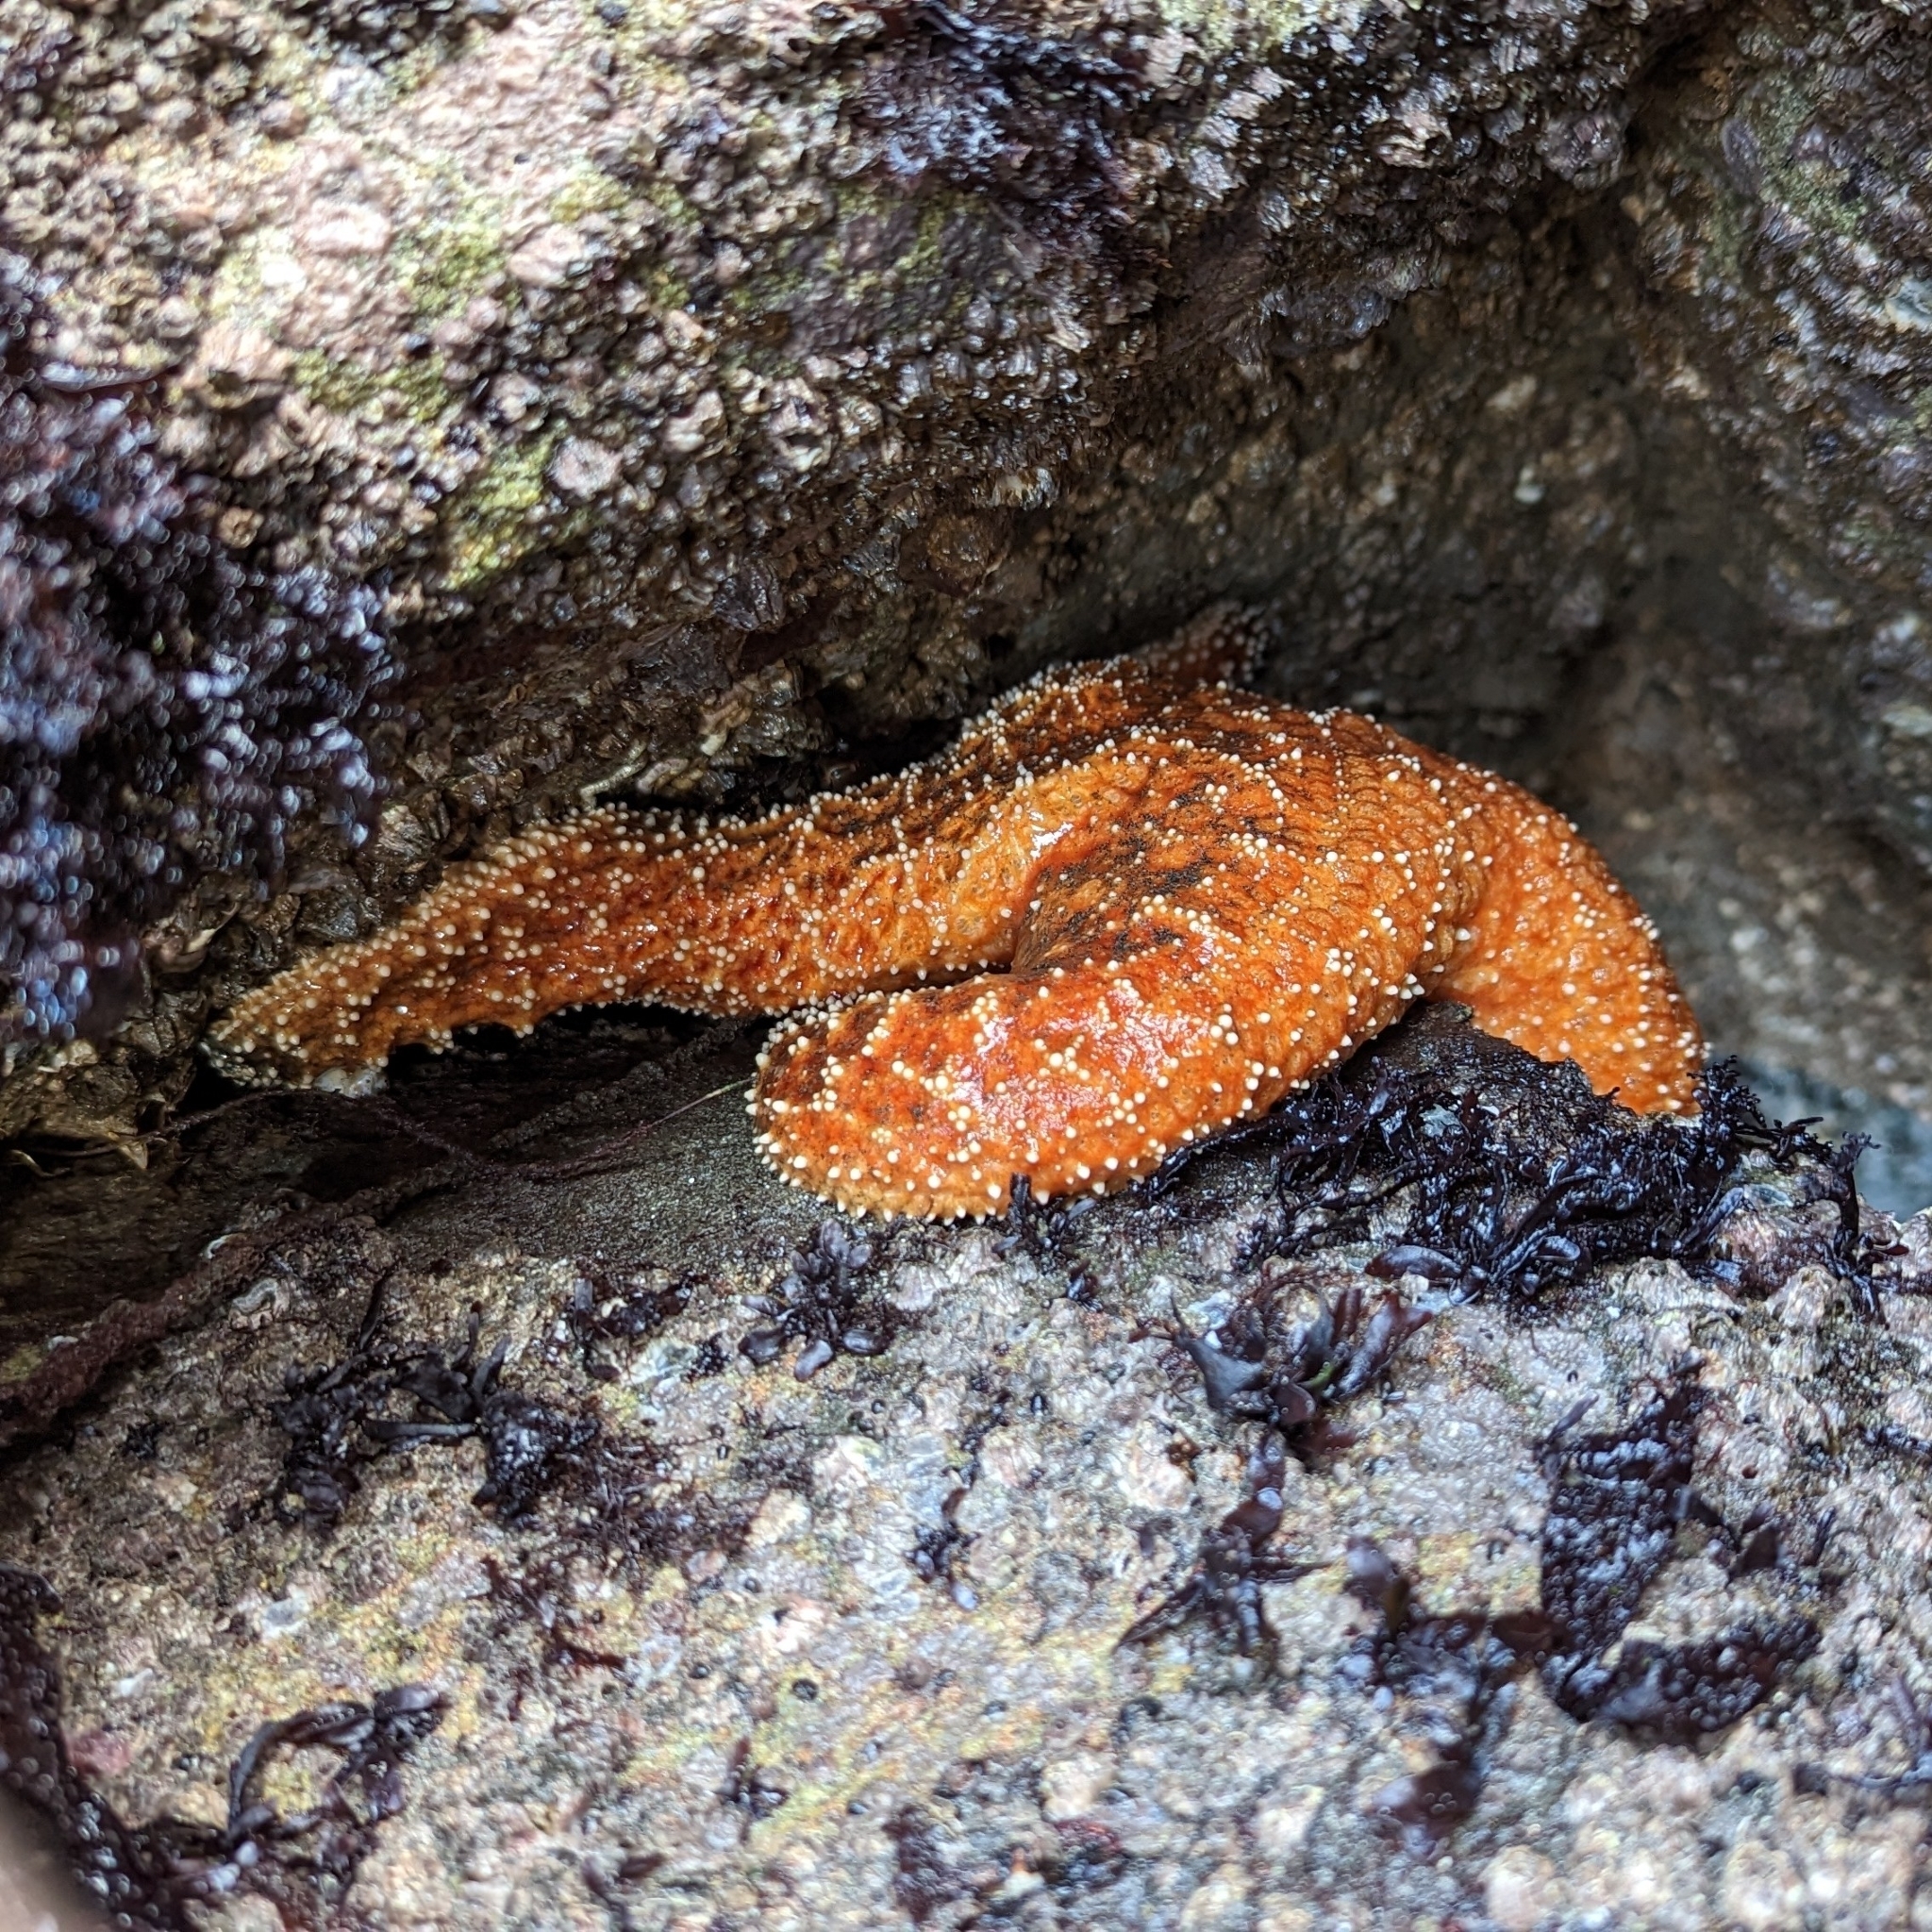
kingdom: Animalia
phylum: Echinodermata
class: Asteroidea
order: Forcipulatida
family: Asteriidae
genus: Pisaster
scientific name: Pisaster ochraceus
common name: Ochre stars
